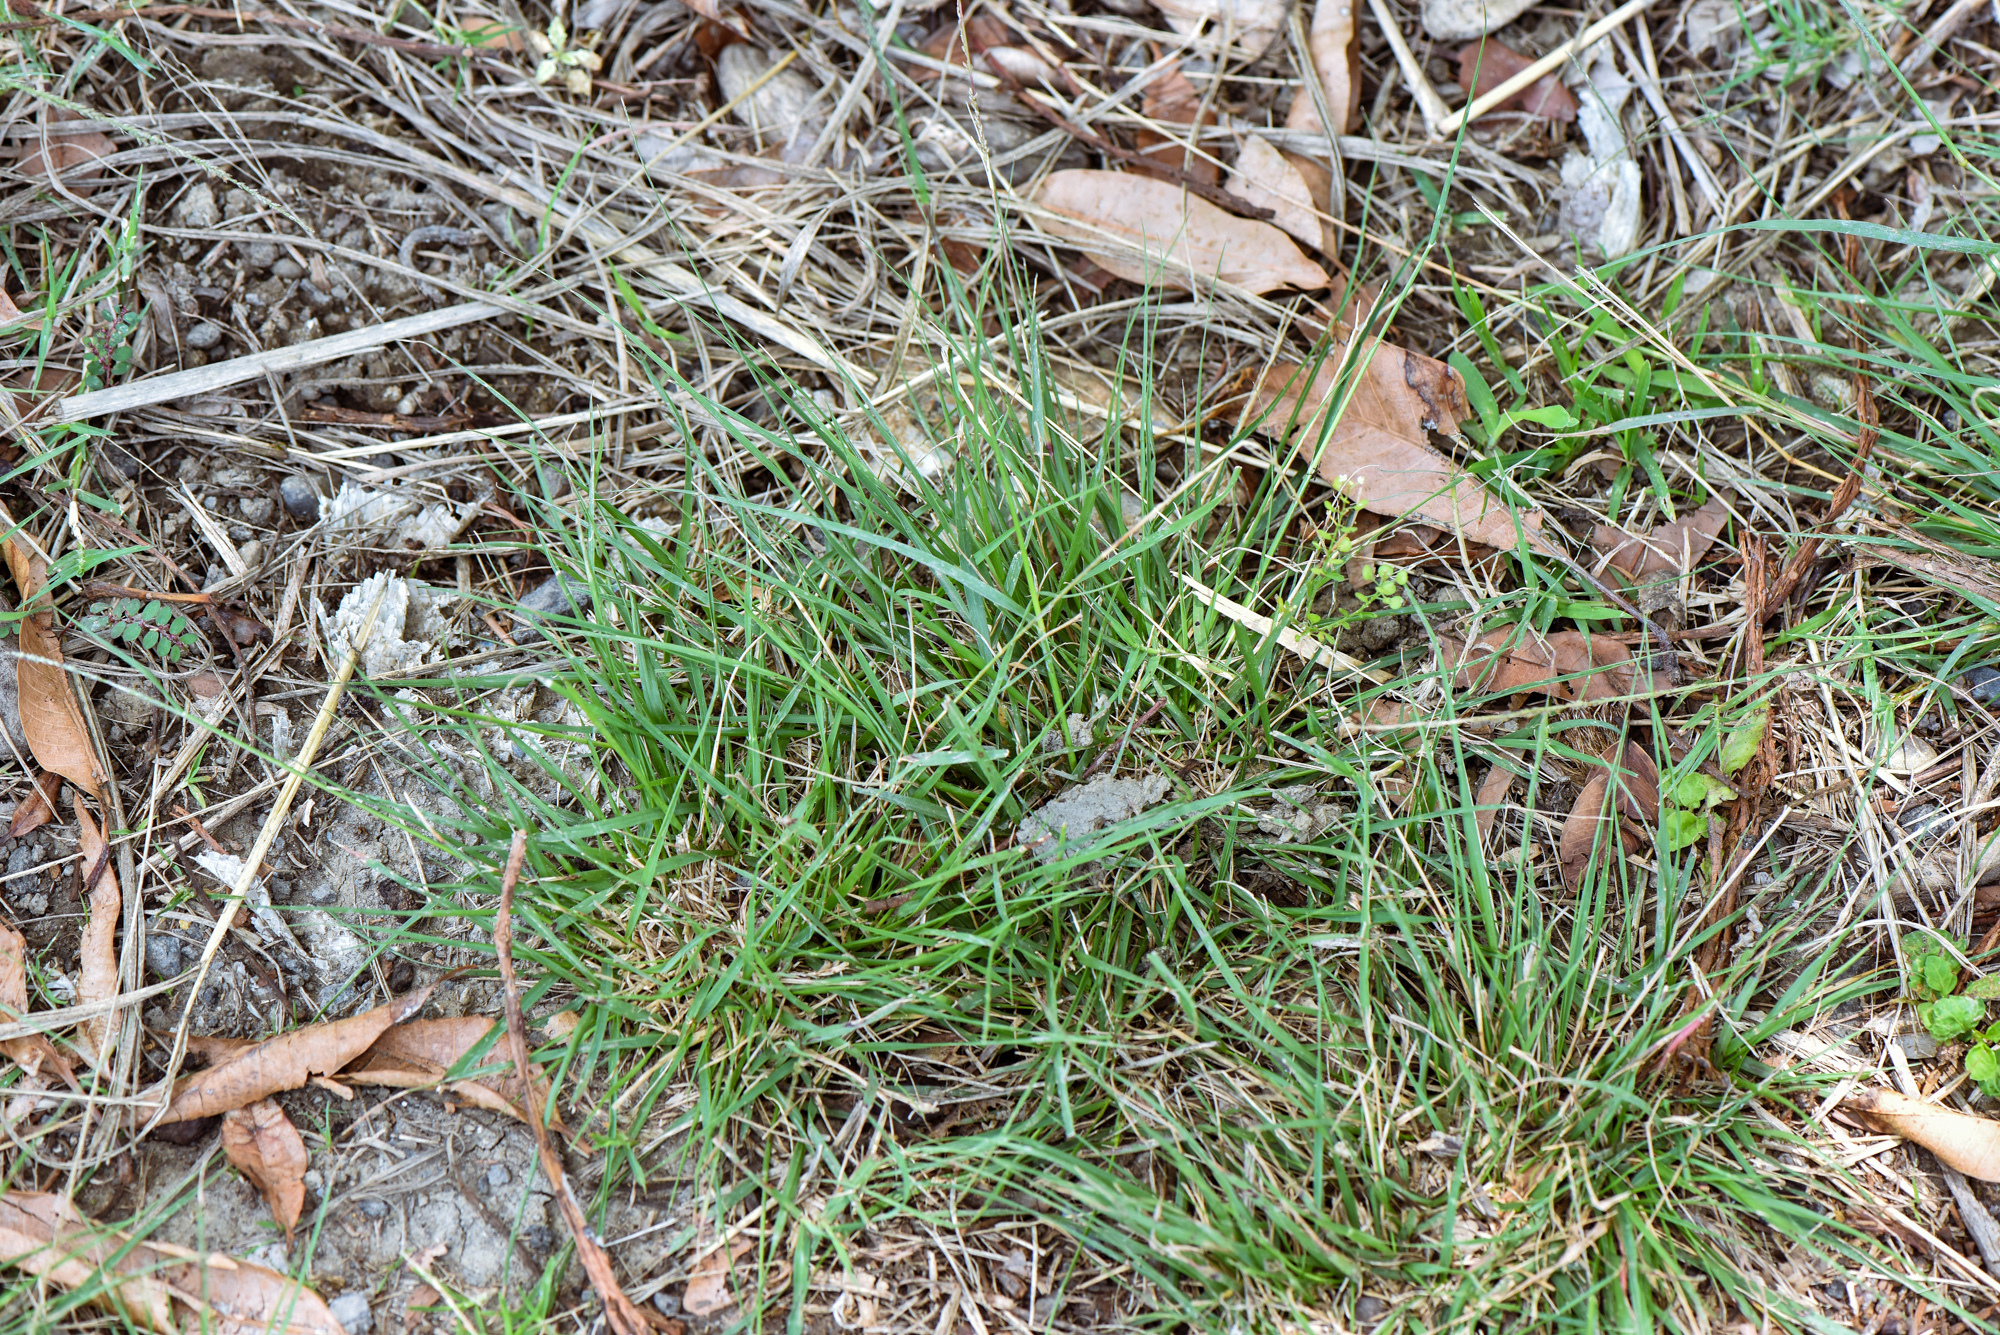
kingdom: Plantae
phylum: Tracheophyta
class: Liliopsida
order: Poales
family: Poaceae
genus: Sporobolus
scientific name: Sporobolus indicus
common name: Smut grass
